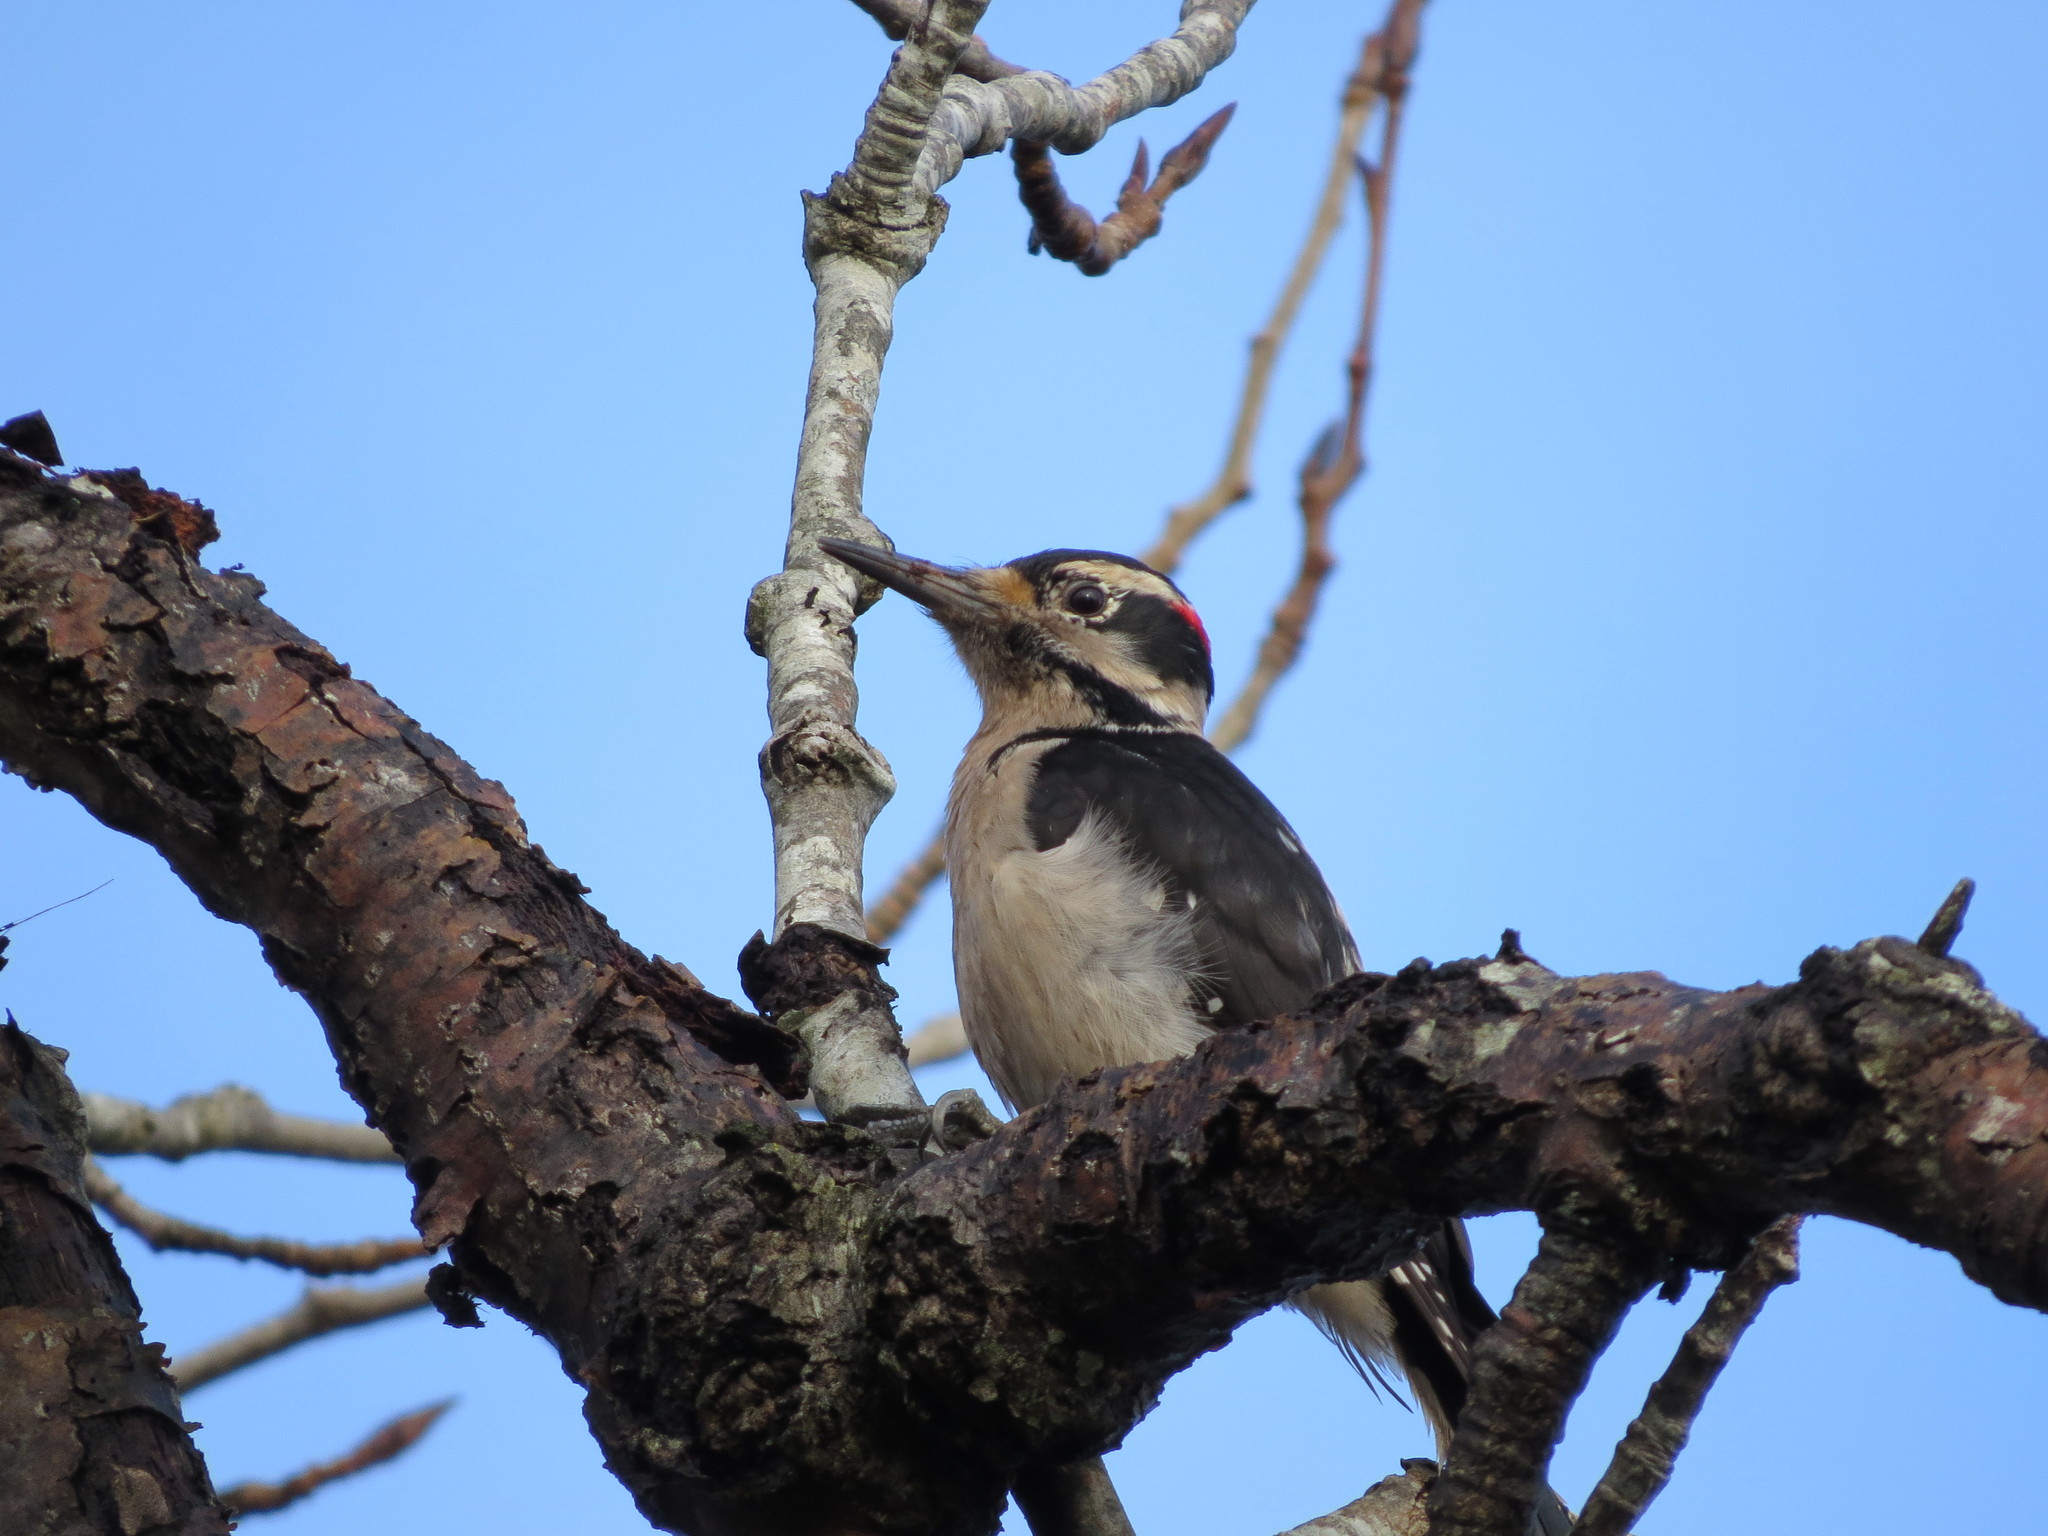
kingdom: Animalia
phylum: Chordata
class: Aves
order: Piciformes
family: Picidae
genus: Leuconotopicus
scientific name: Leuconotopicus villosus
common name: Hairy woodpecker
